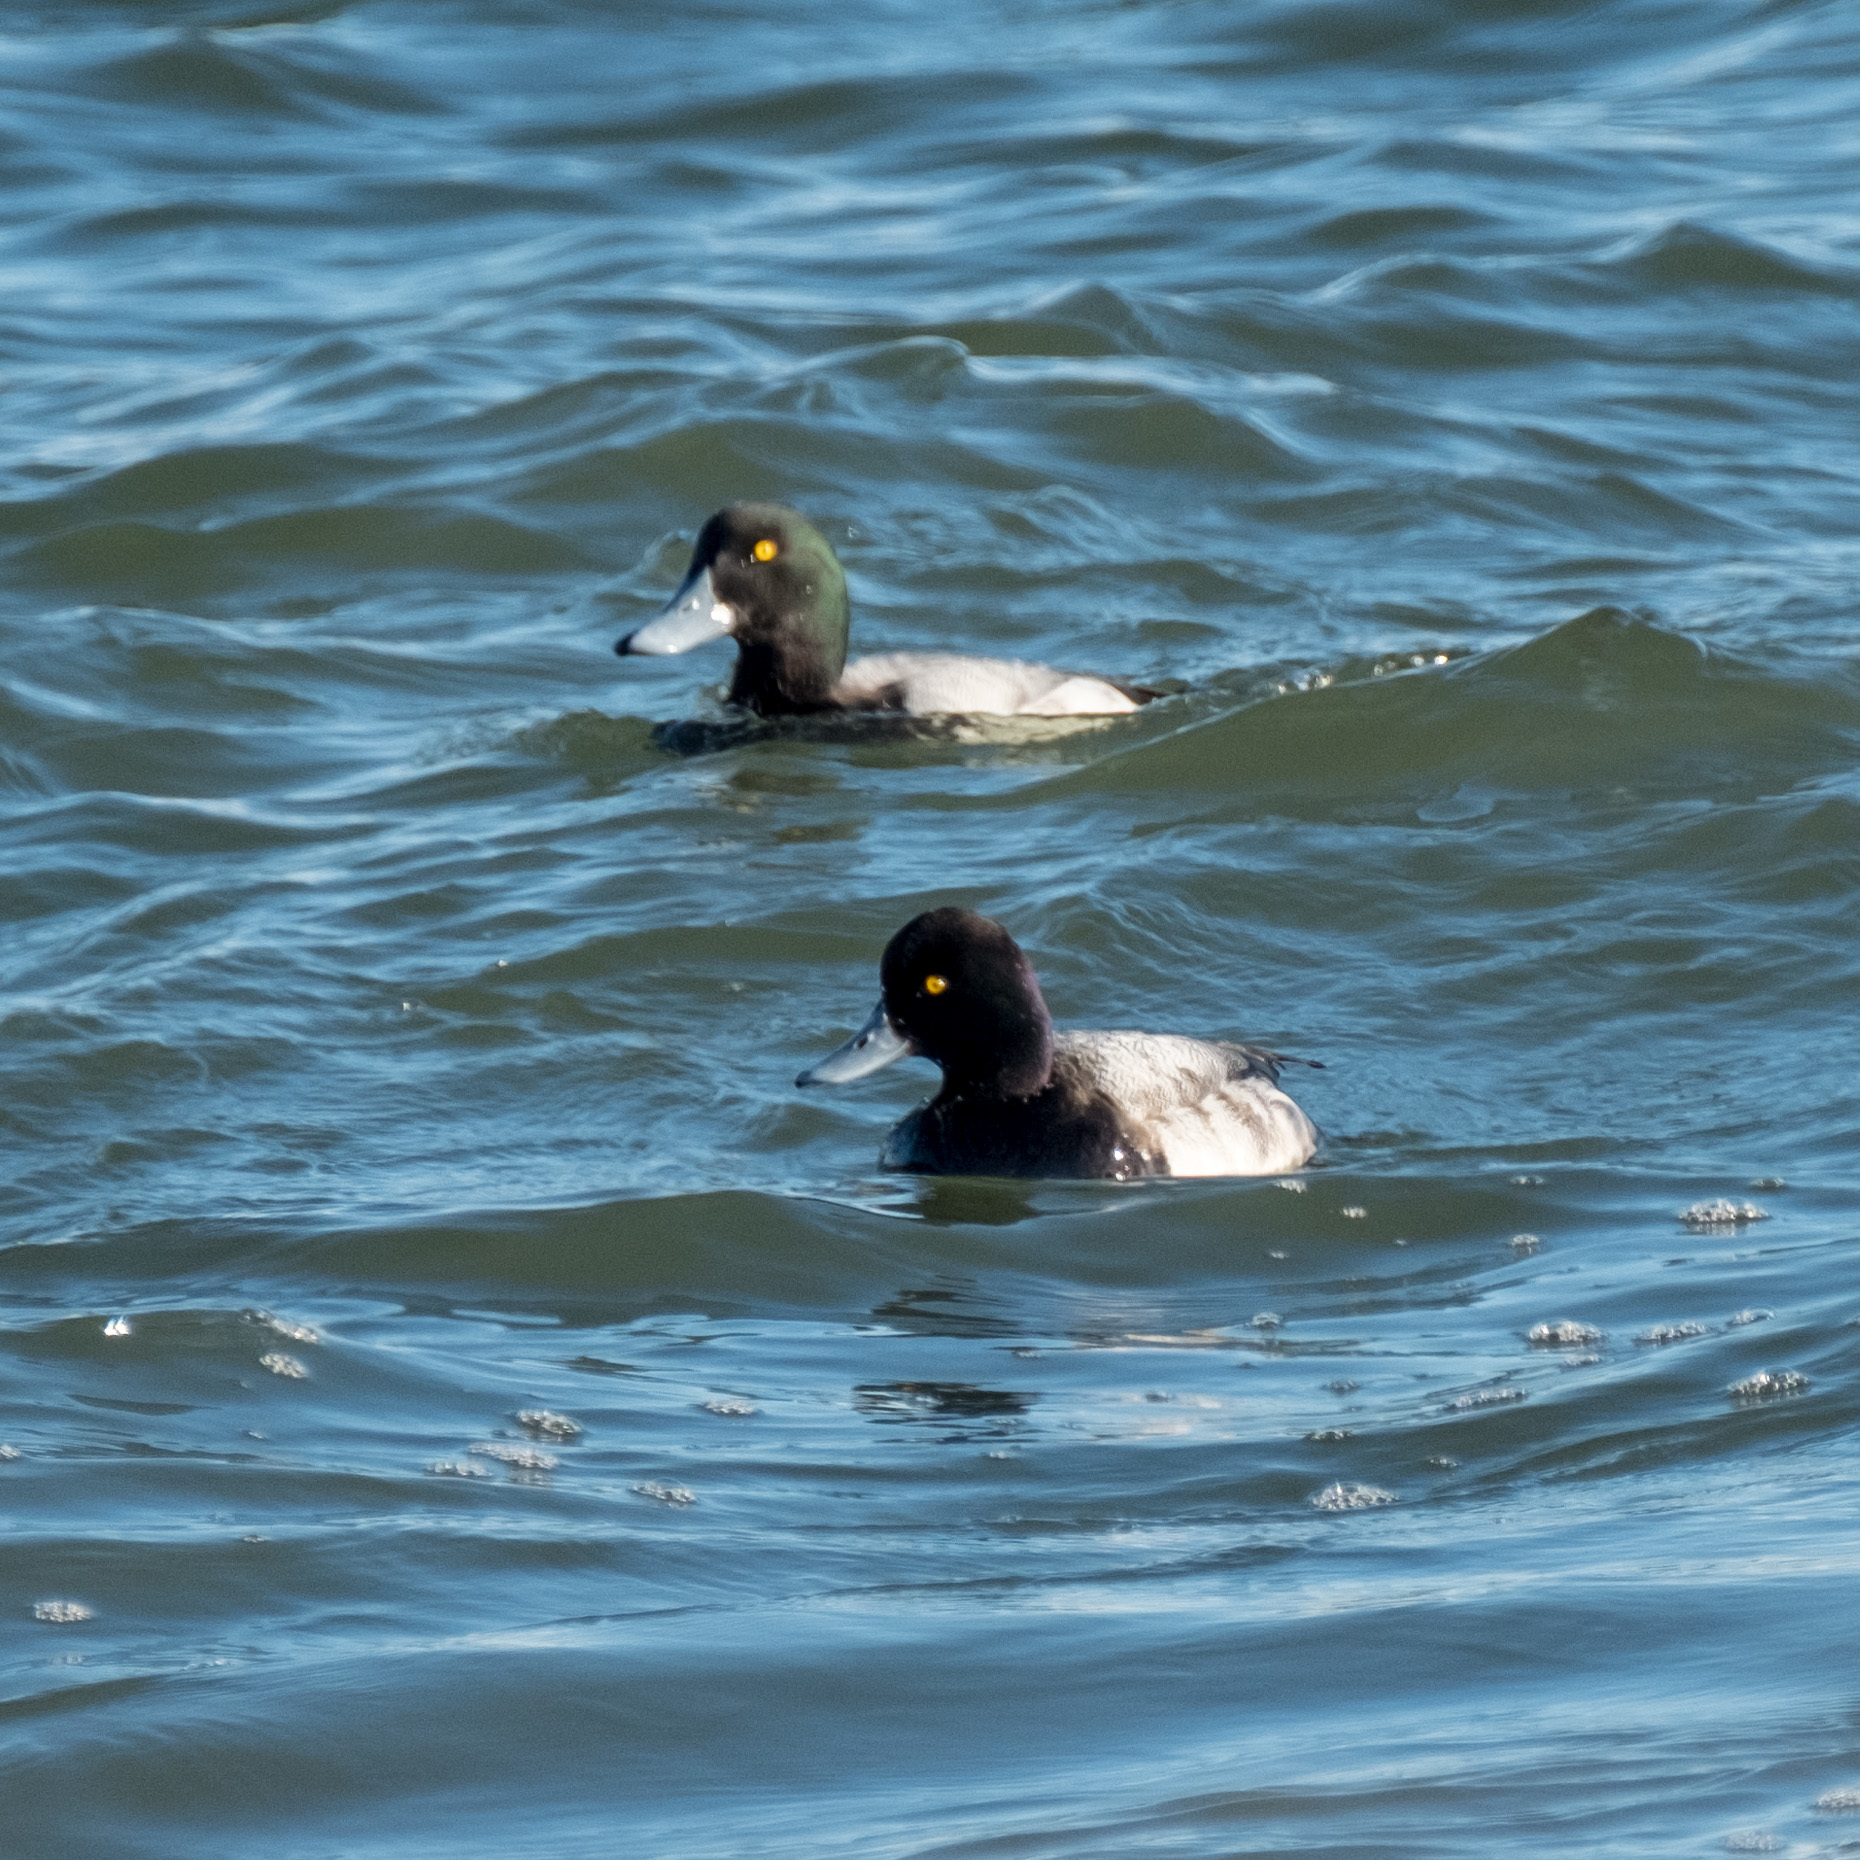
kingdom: Animalia
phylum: Chordata
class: Aves
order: Anseriformes
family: Anatidae
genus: Aythya
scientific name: Aythya affinis
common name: Lesser scaup
